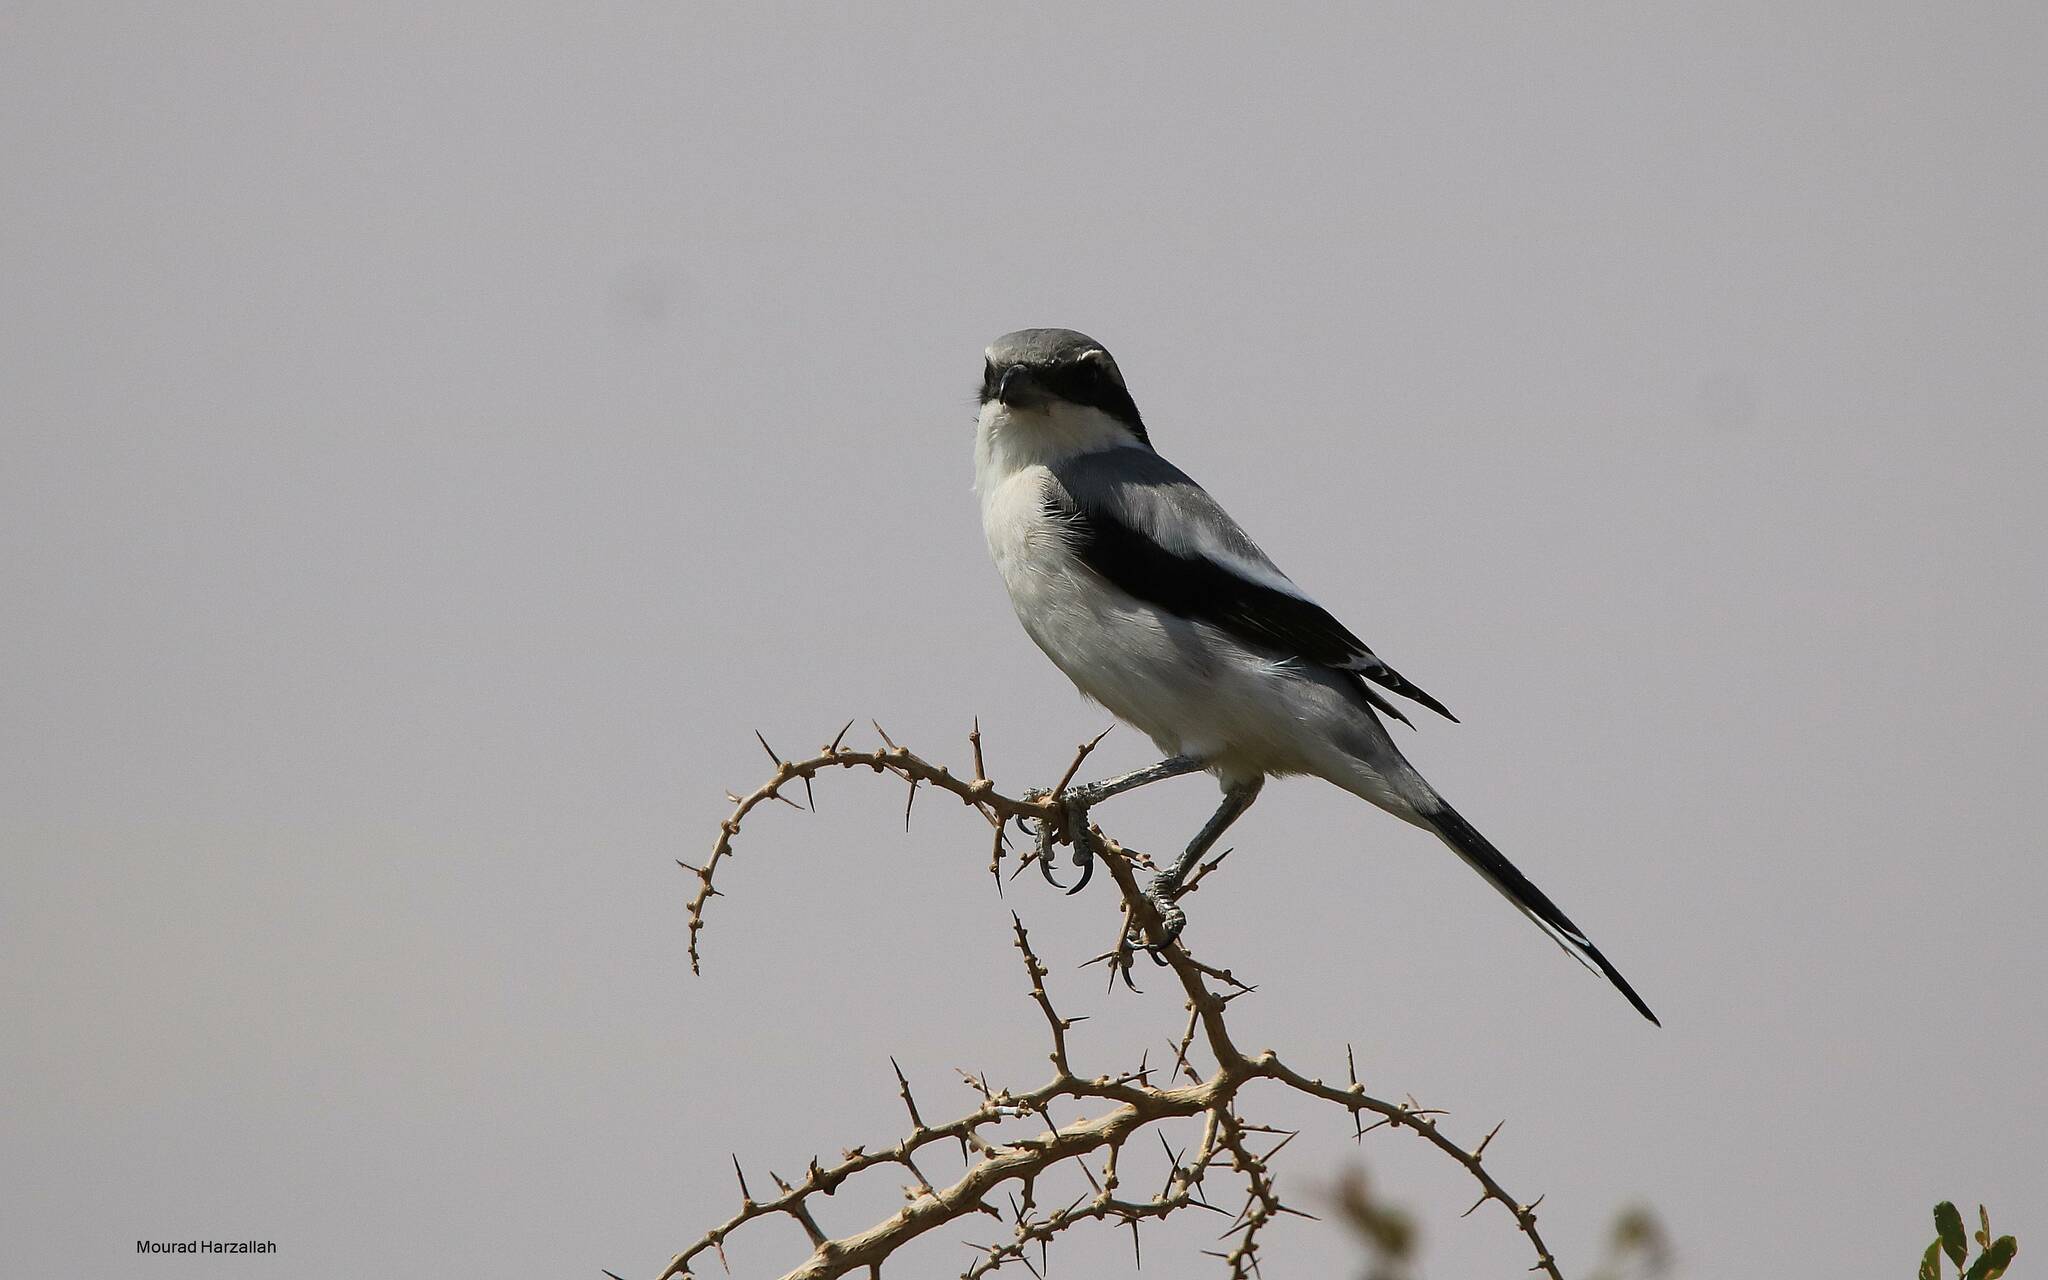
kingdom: Animalia
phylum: Chordata
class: Aves
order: Passeriformes
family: Laniidae
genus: Lanius
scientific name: Lanius excubitor
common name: Great grey shrike
